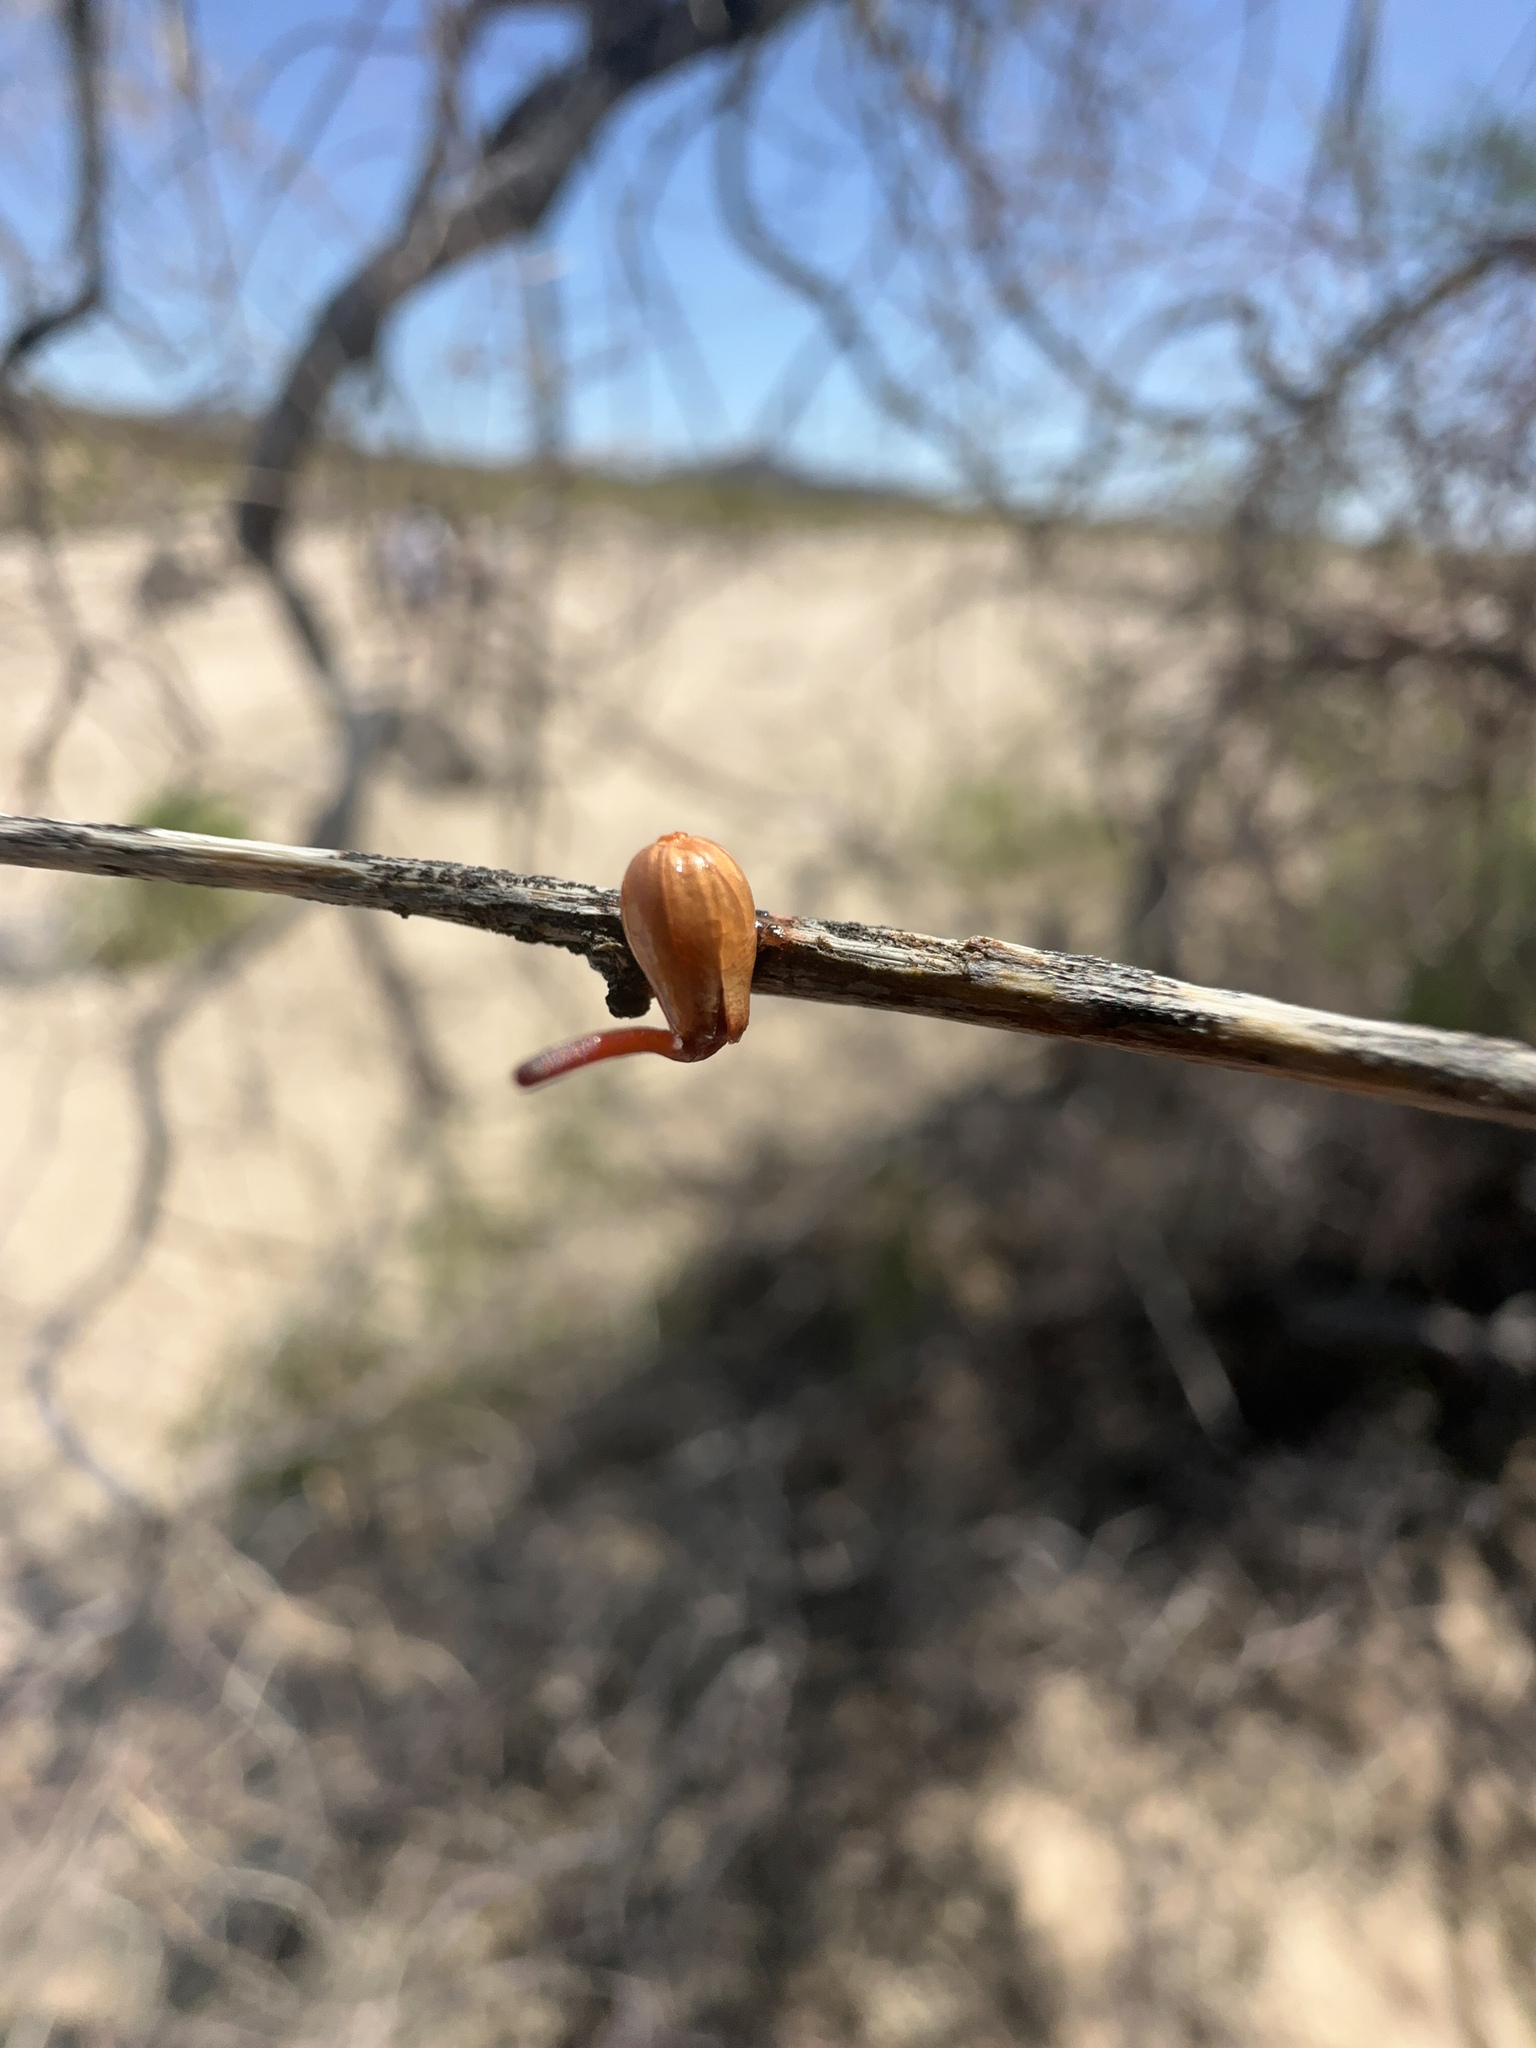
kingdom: Plantae
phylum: Tracheophyta
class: Magnoliopsida
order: Santalales
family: Viscaceae
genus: Phoradendron
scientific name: Phoradendron californicum
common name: Acacia mistletoe
